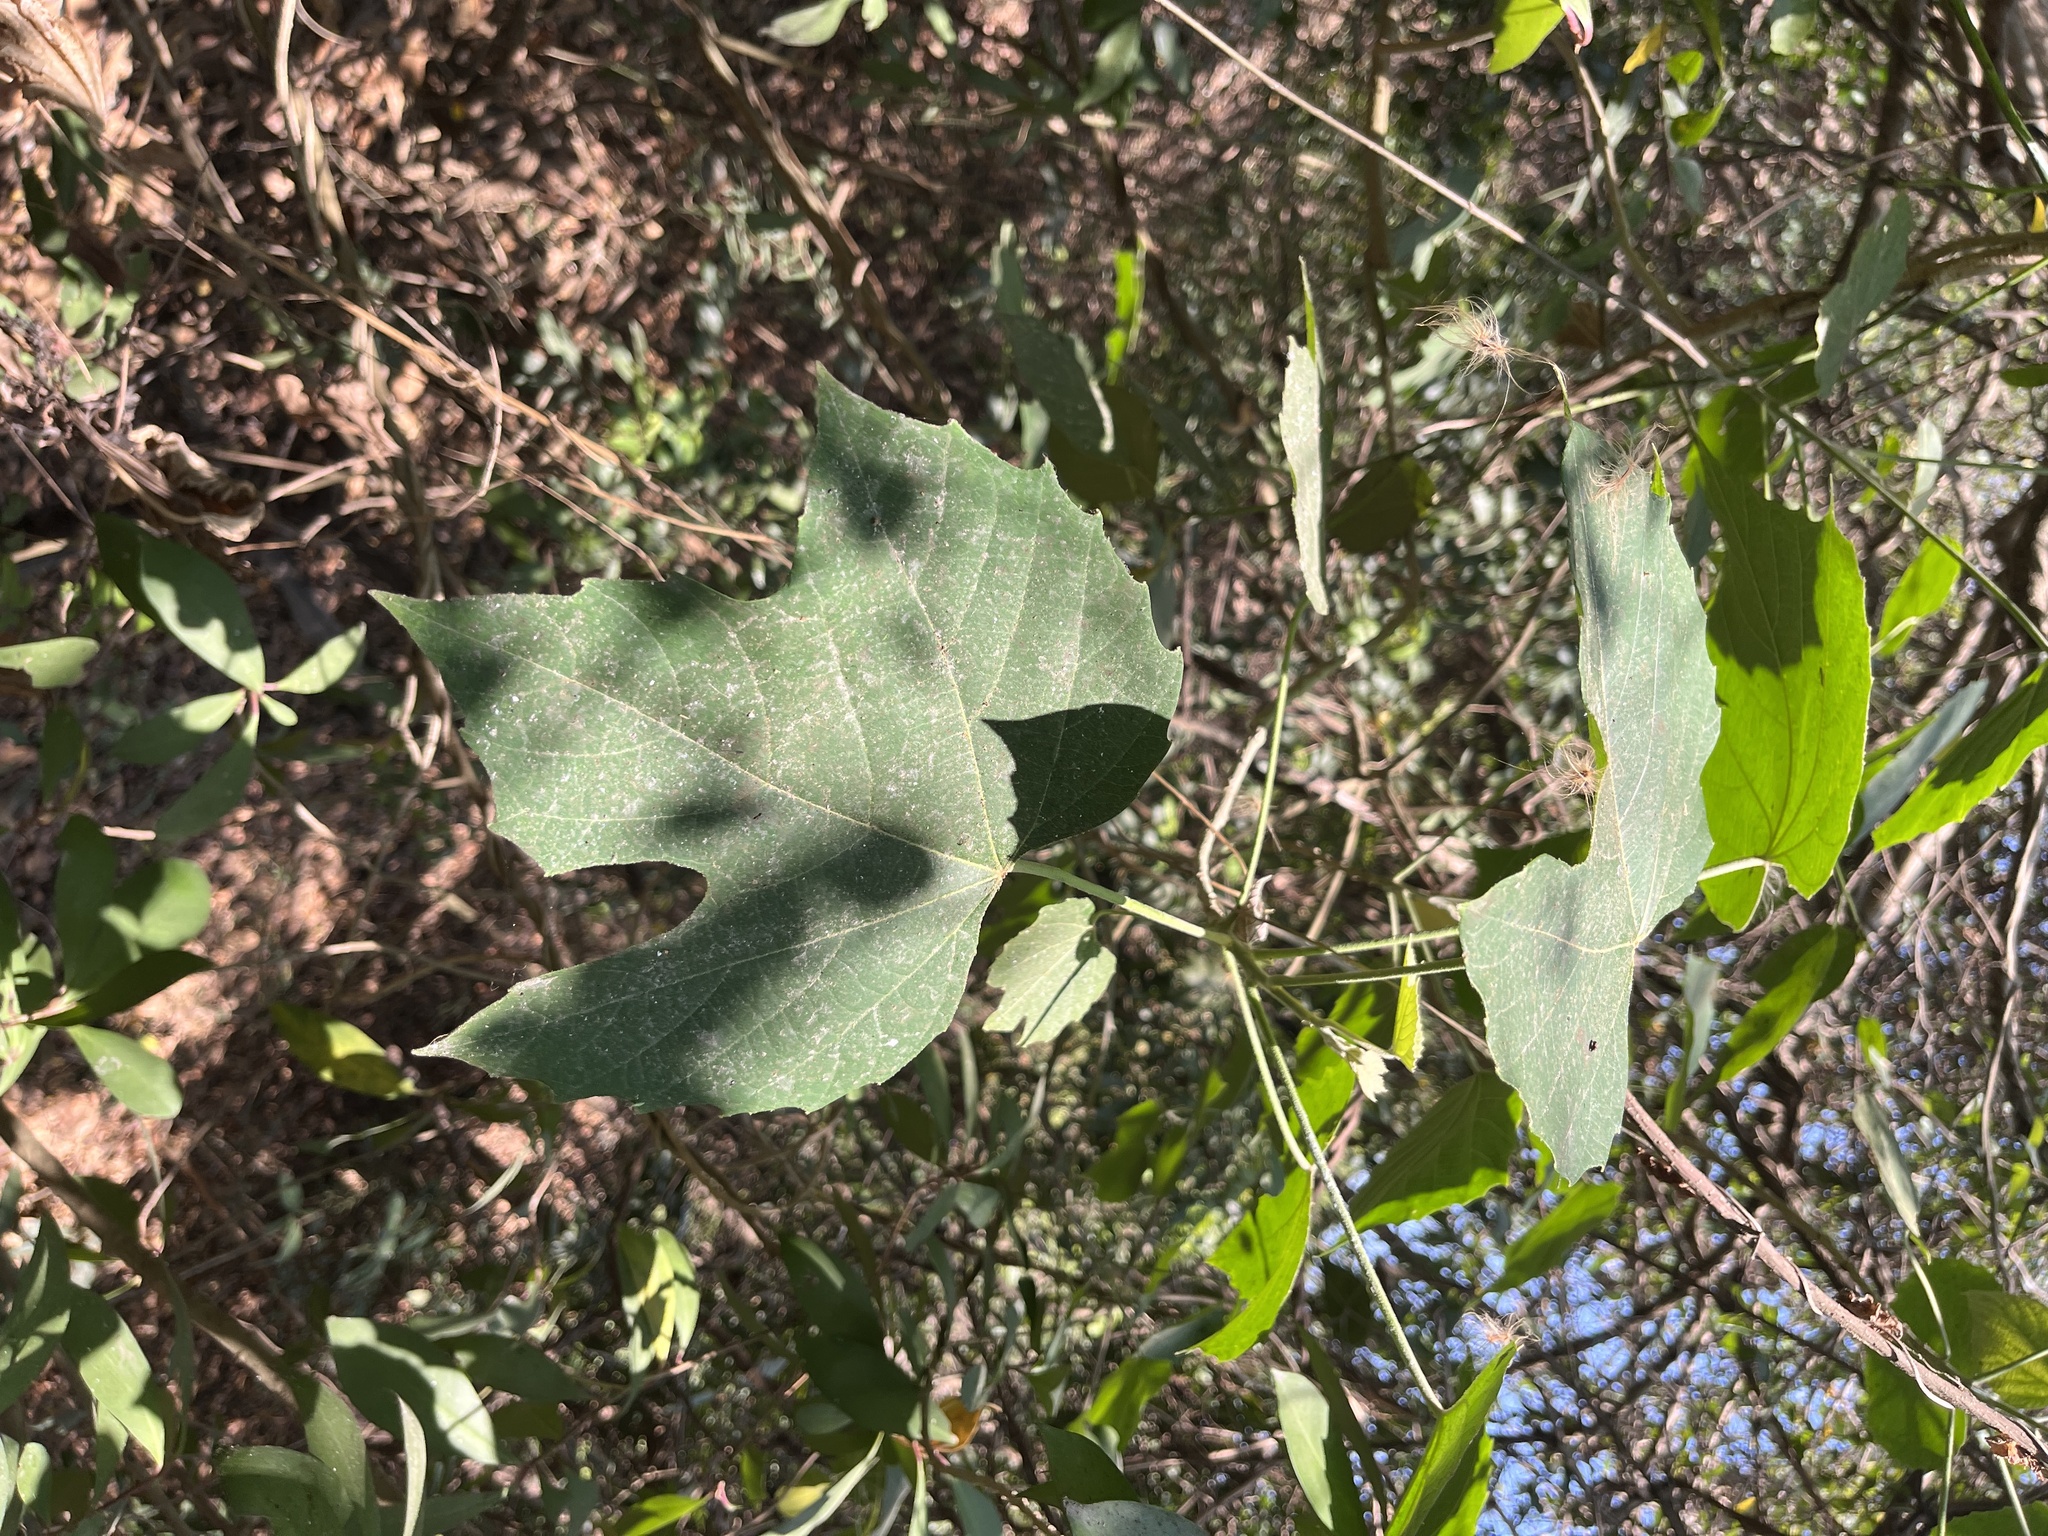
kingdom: Plantae
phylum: Tracheophyta
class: Magnoliopsida
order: Malpighiales
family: Euphorbiaceae
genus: Melanolepis
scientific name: Melanolepis multiglandulosa
